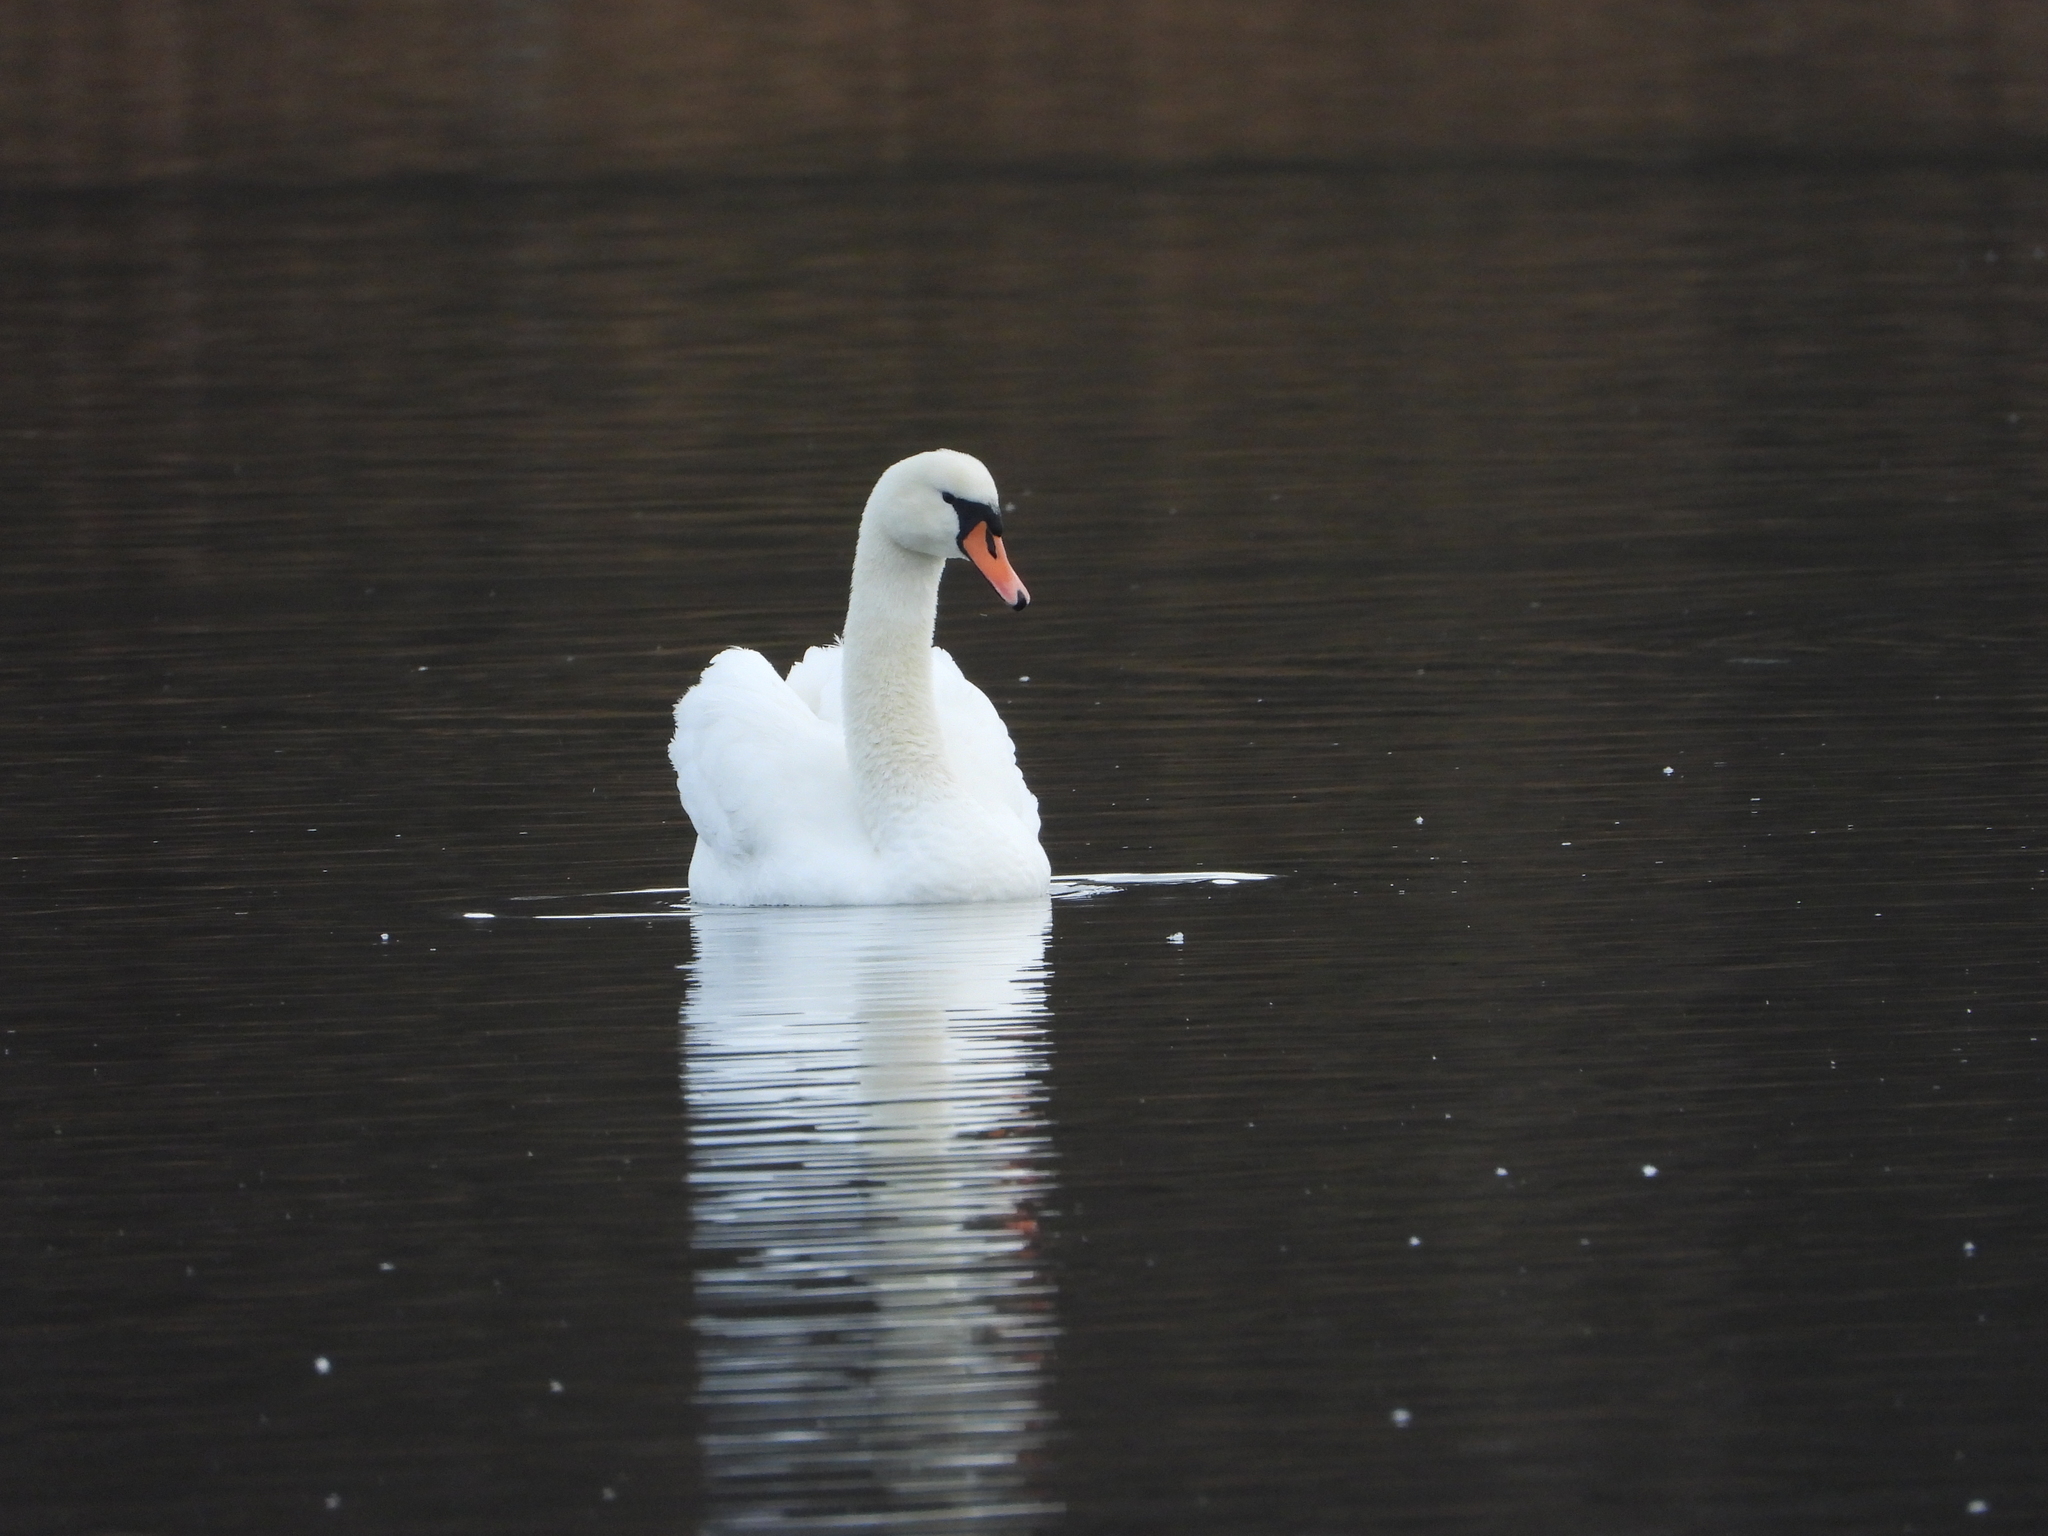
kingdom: Animalia
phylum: Chordata
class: Aves
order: Anseriformes
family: Anatidae
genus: Cygnus
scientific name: Cygnus olor
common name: Mute swan
